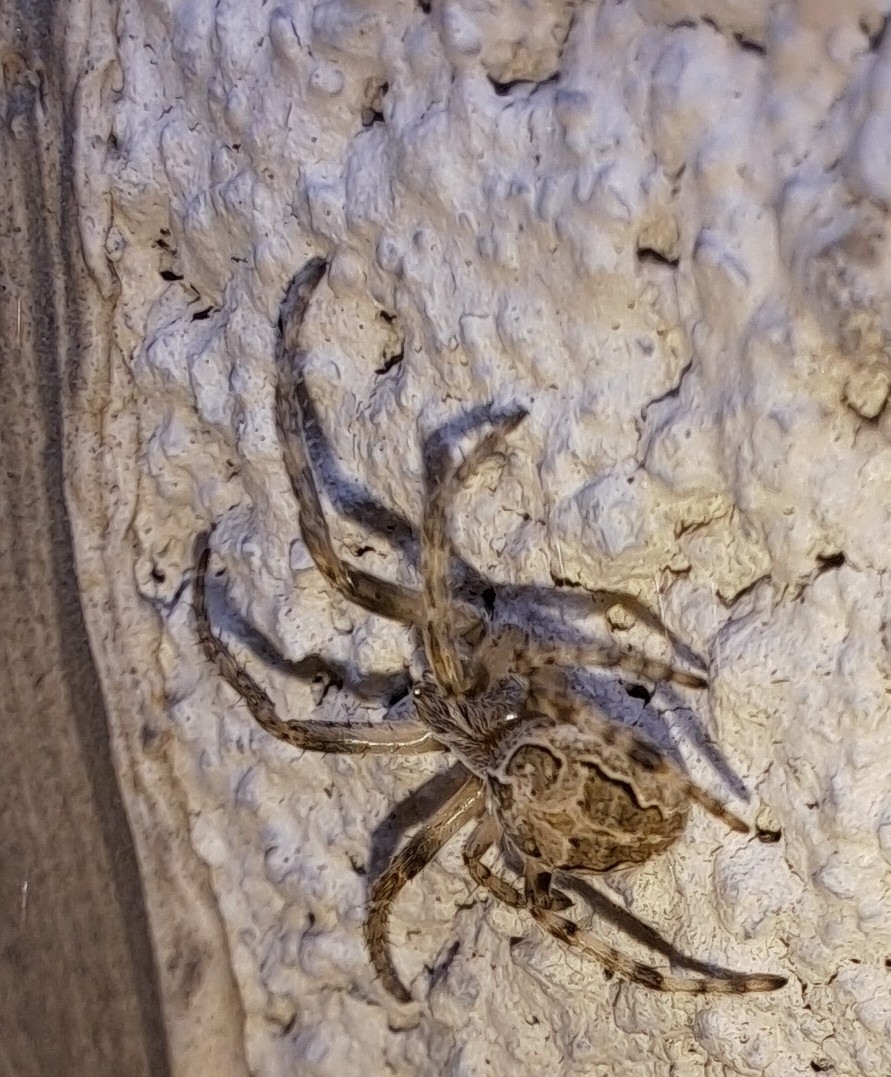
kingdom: Animalia
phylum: Arthropoda
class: Arachnida
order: Araneae
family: Araneidae
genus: Larinioides
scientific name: Larinioides sclopetarius
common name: Bridge orbweaver
